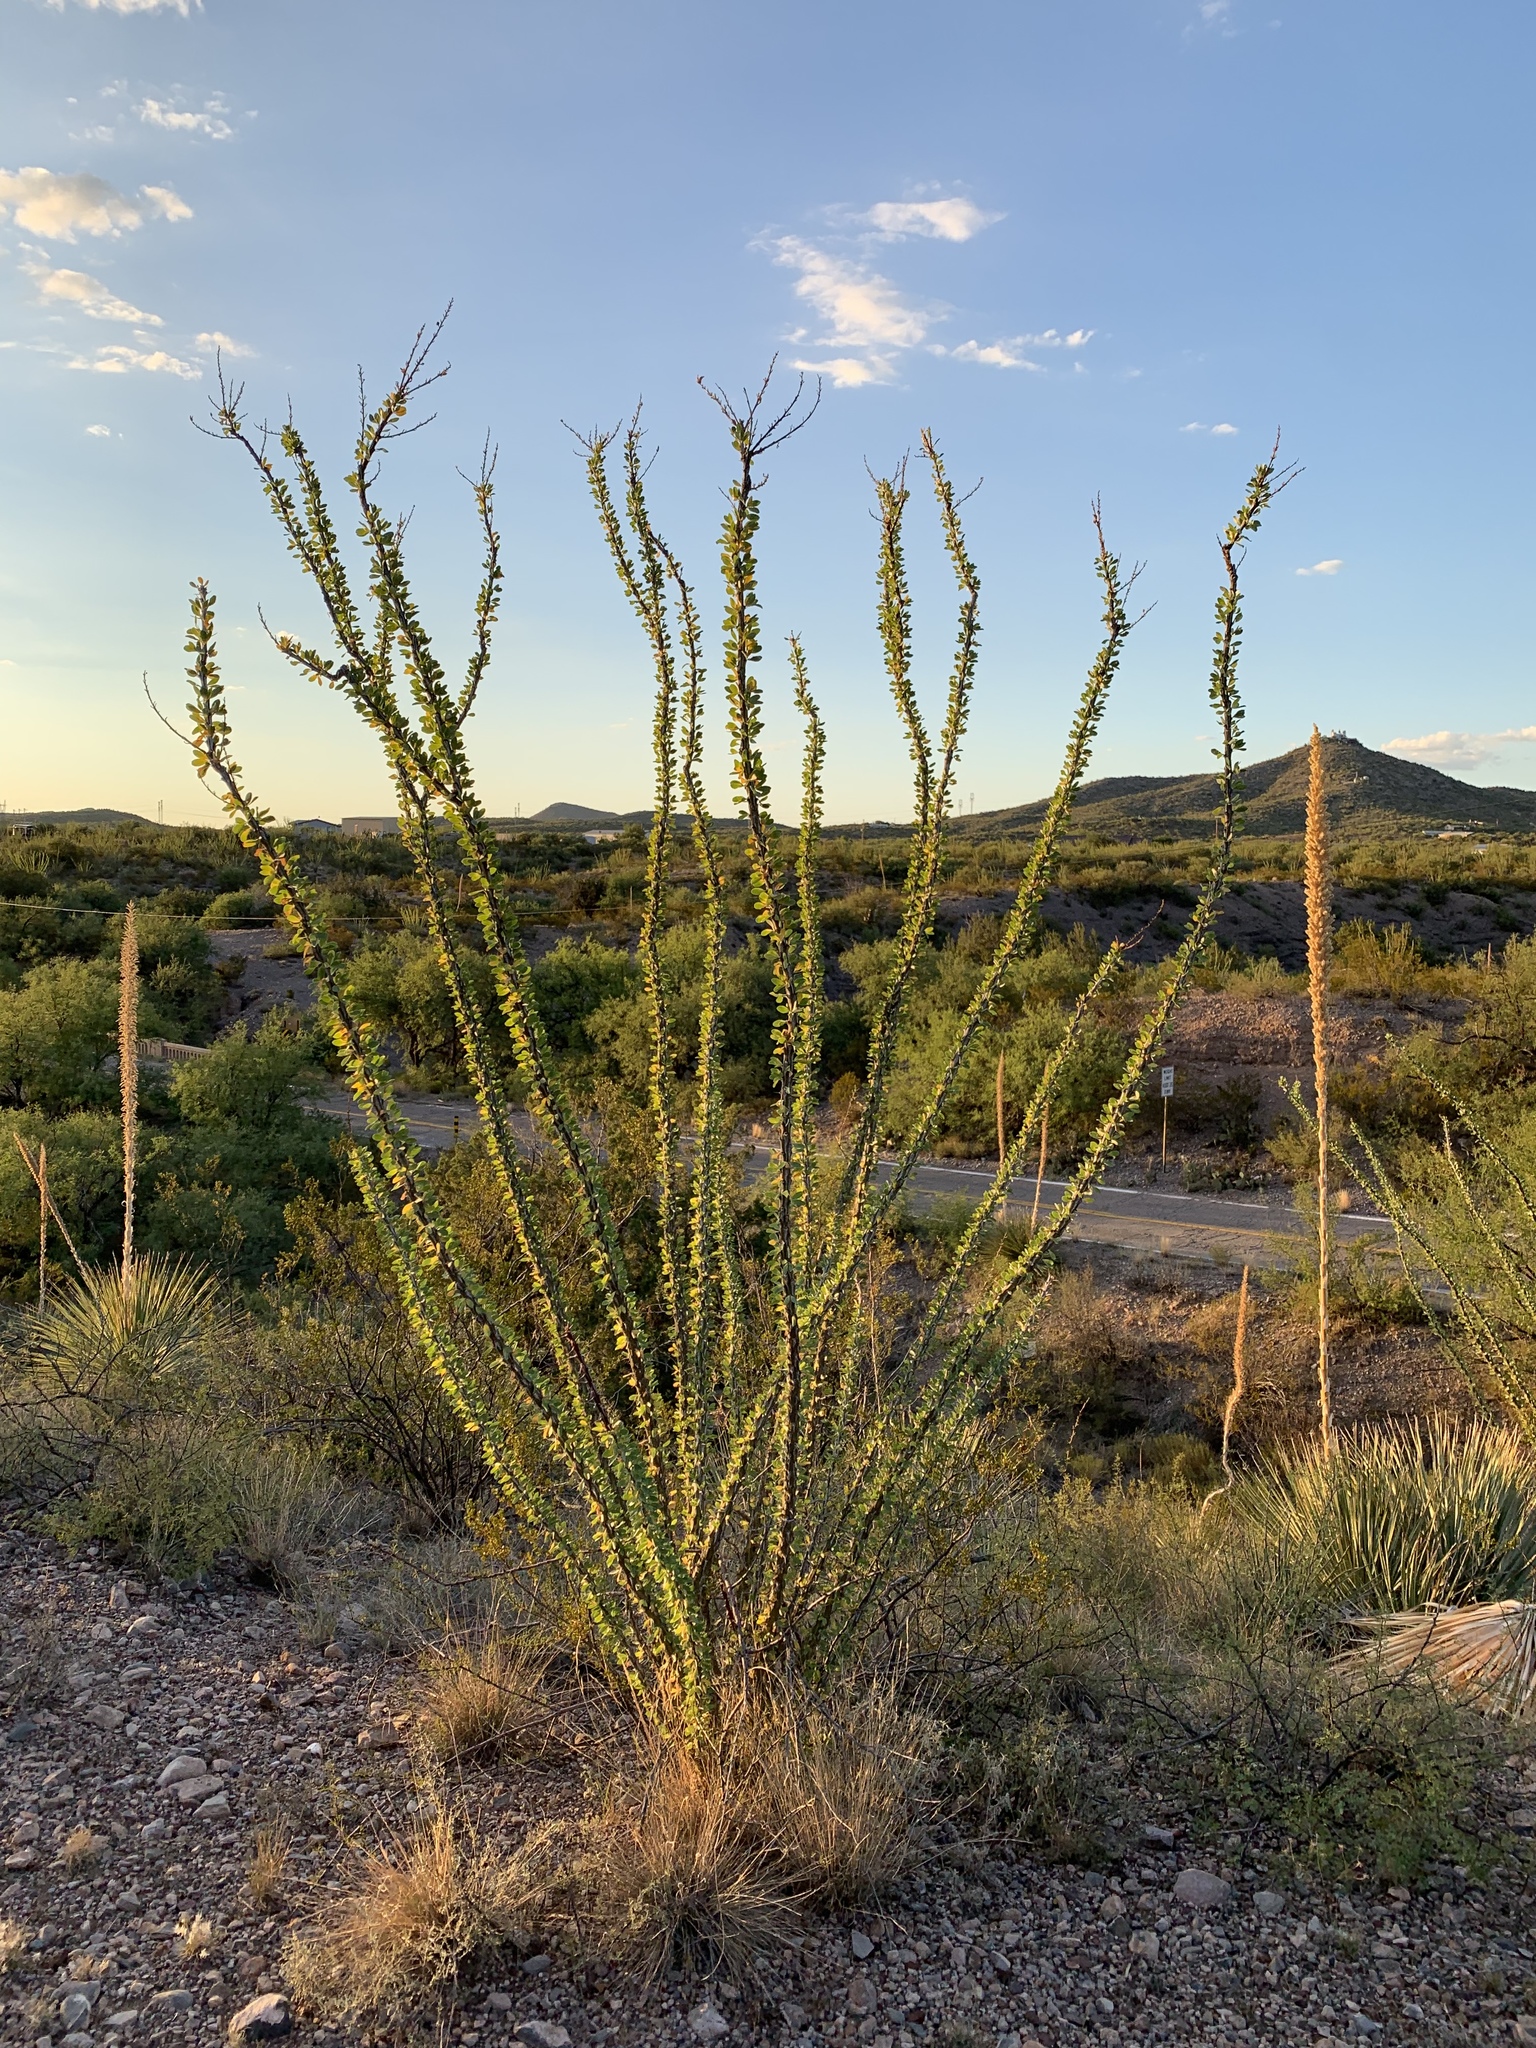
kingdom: Plantae
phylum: Tracheophyta
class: Magnoliopsida
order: Ericales
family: Fouquieriaceae
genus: Fouquieria
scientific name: Fouquieria splendens
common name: Vine-cactus
